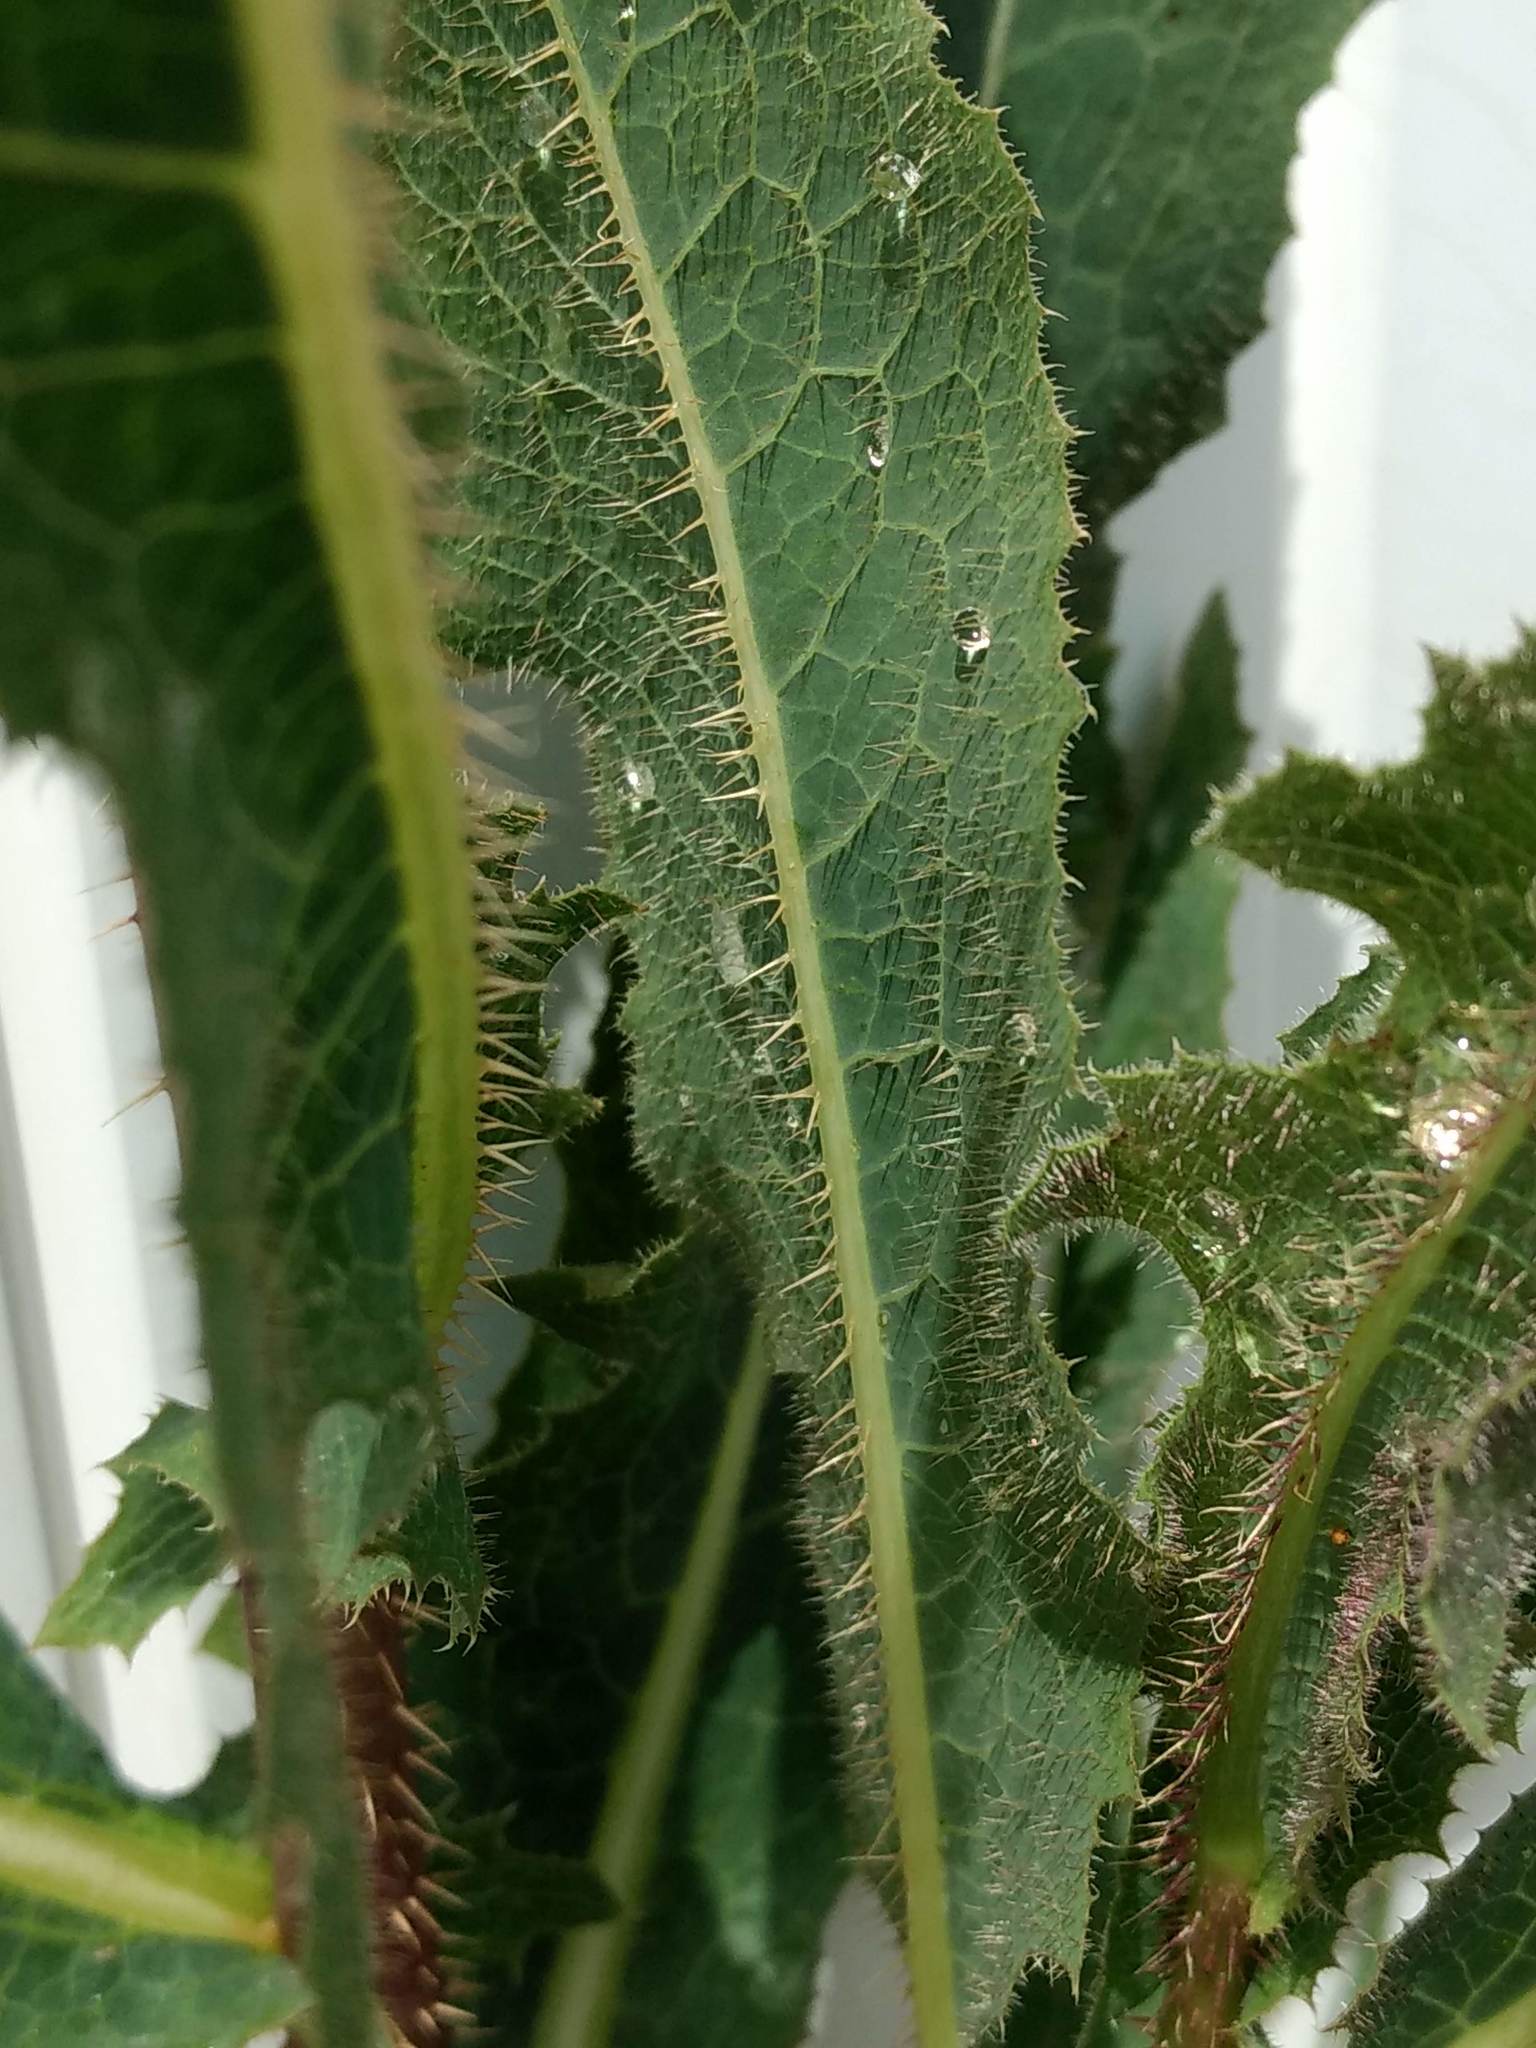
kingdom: Plantae
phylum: Tracheophyta
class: Magnoliopsida
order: Asterales
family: Asteraceae
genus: Lactuca
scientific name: Lactuca serriola
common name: Prickly lettuce
